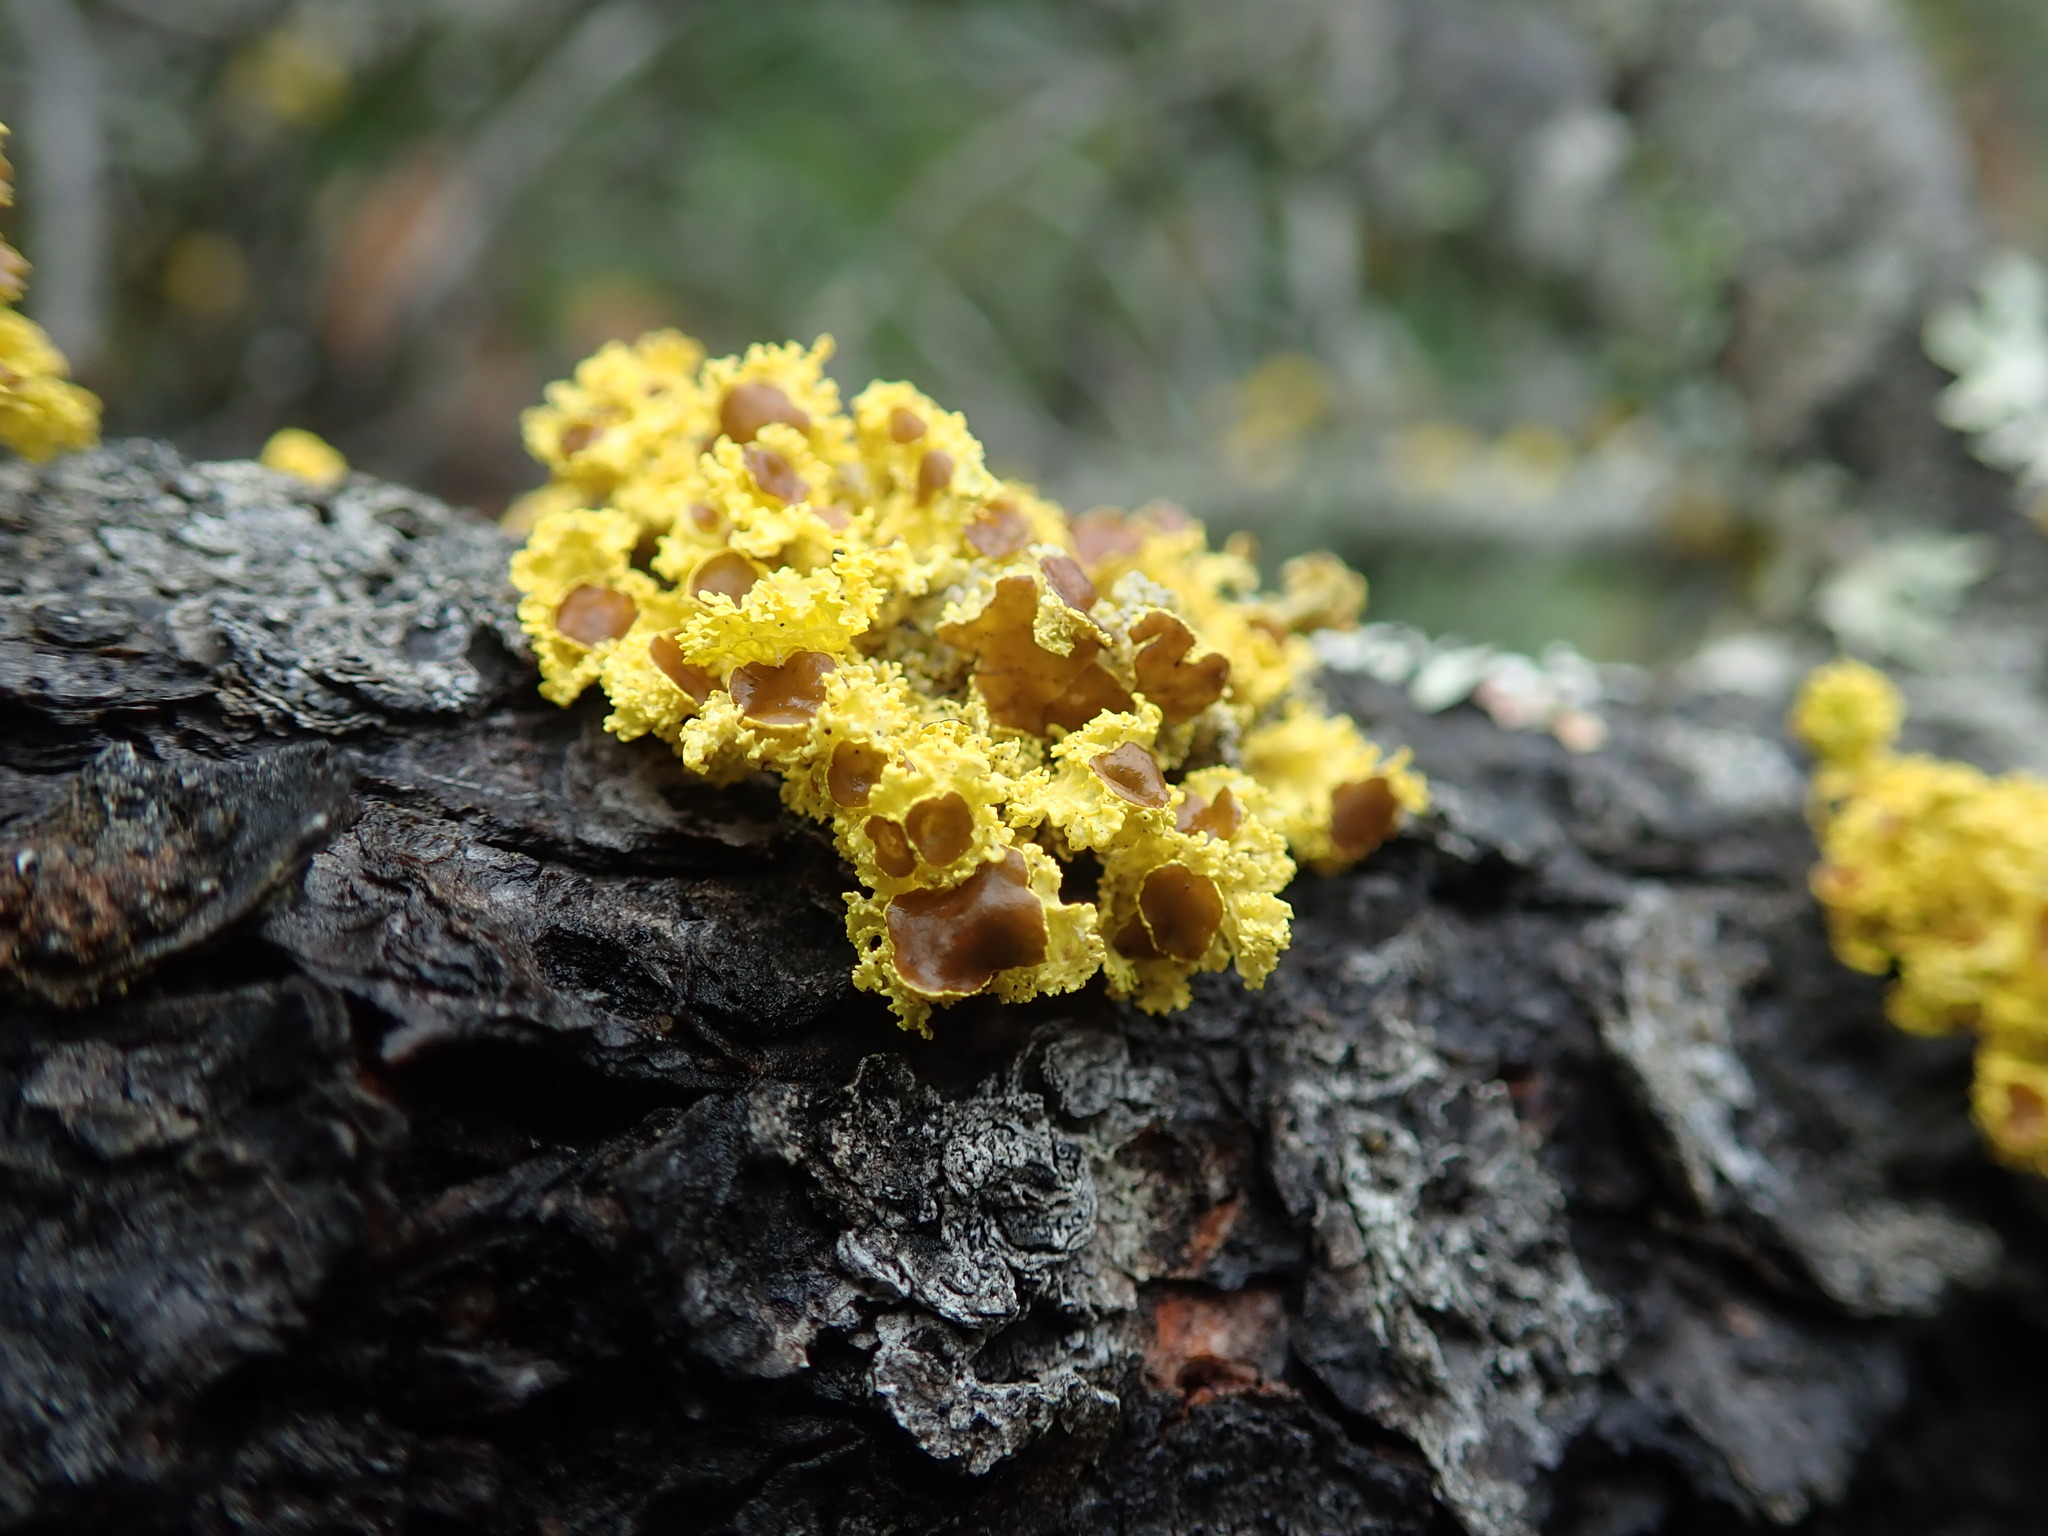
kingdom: Fungi
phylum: Ascomycota
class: Lecanoromycetes
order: Lecanorales
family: Parmeliaceae
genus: Vulpicida
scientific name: Vulpicida canadensis
